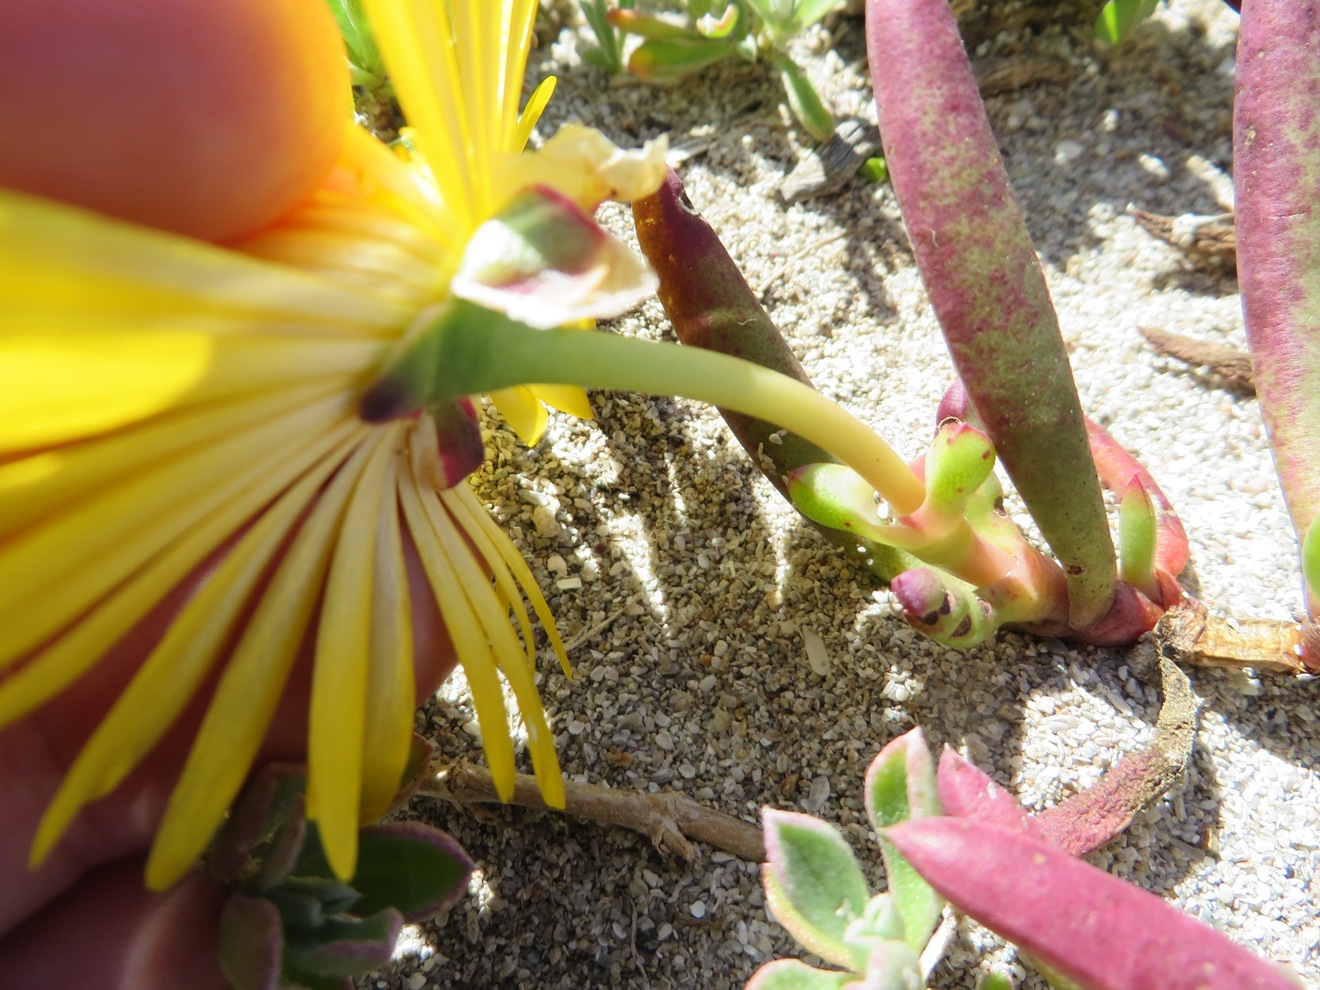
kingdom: Plantae
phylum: Tracheophyta
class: Magnoliopsida
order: Caryophyllales
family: Aizoaceae
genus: Jordaaniella
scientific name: Jordaaniella dubia
